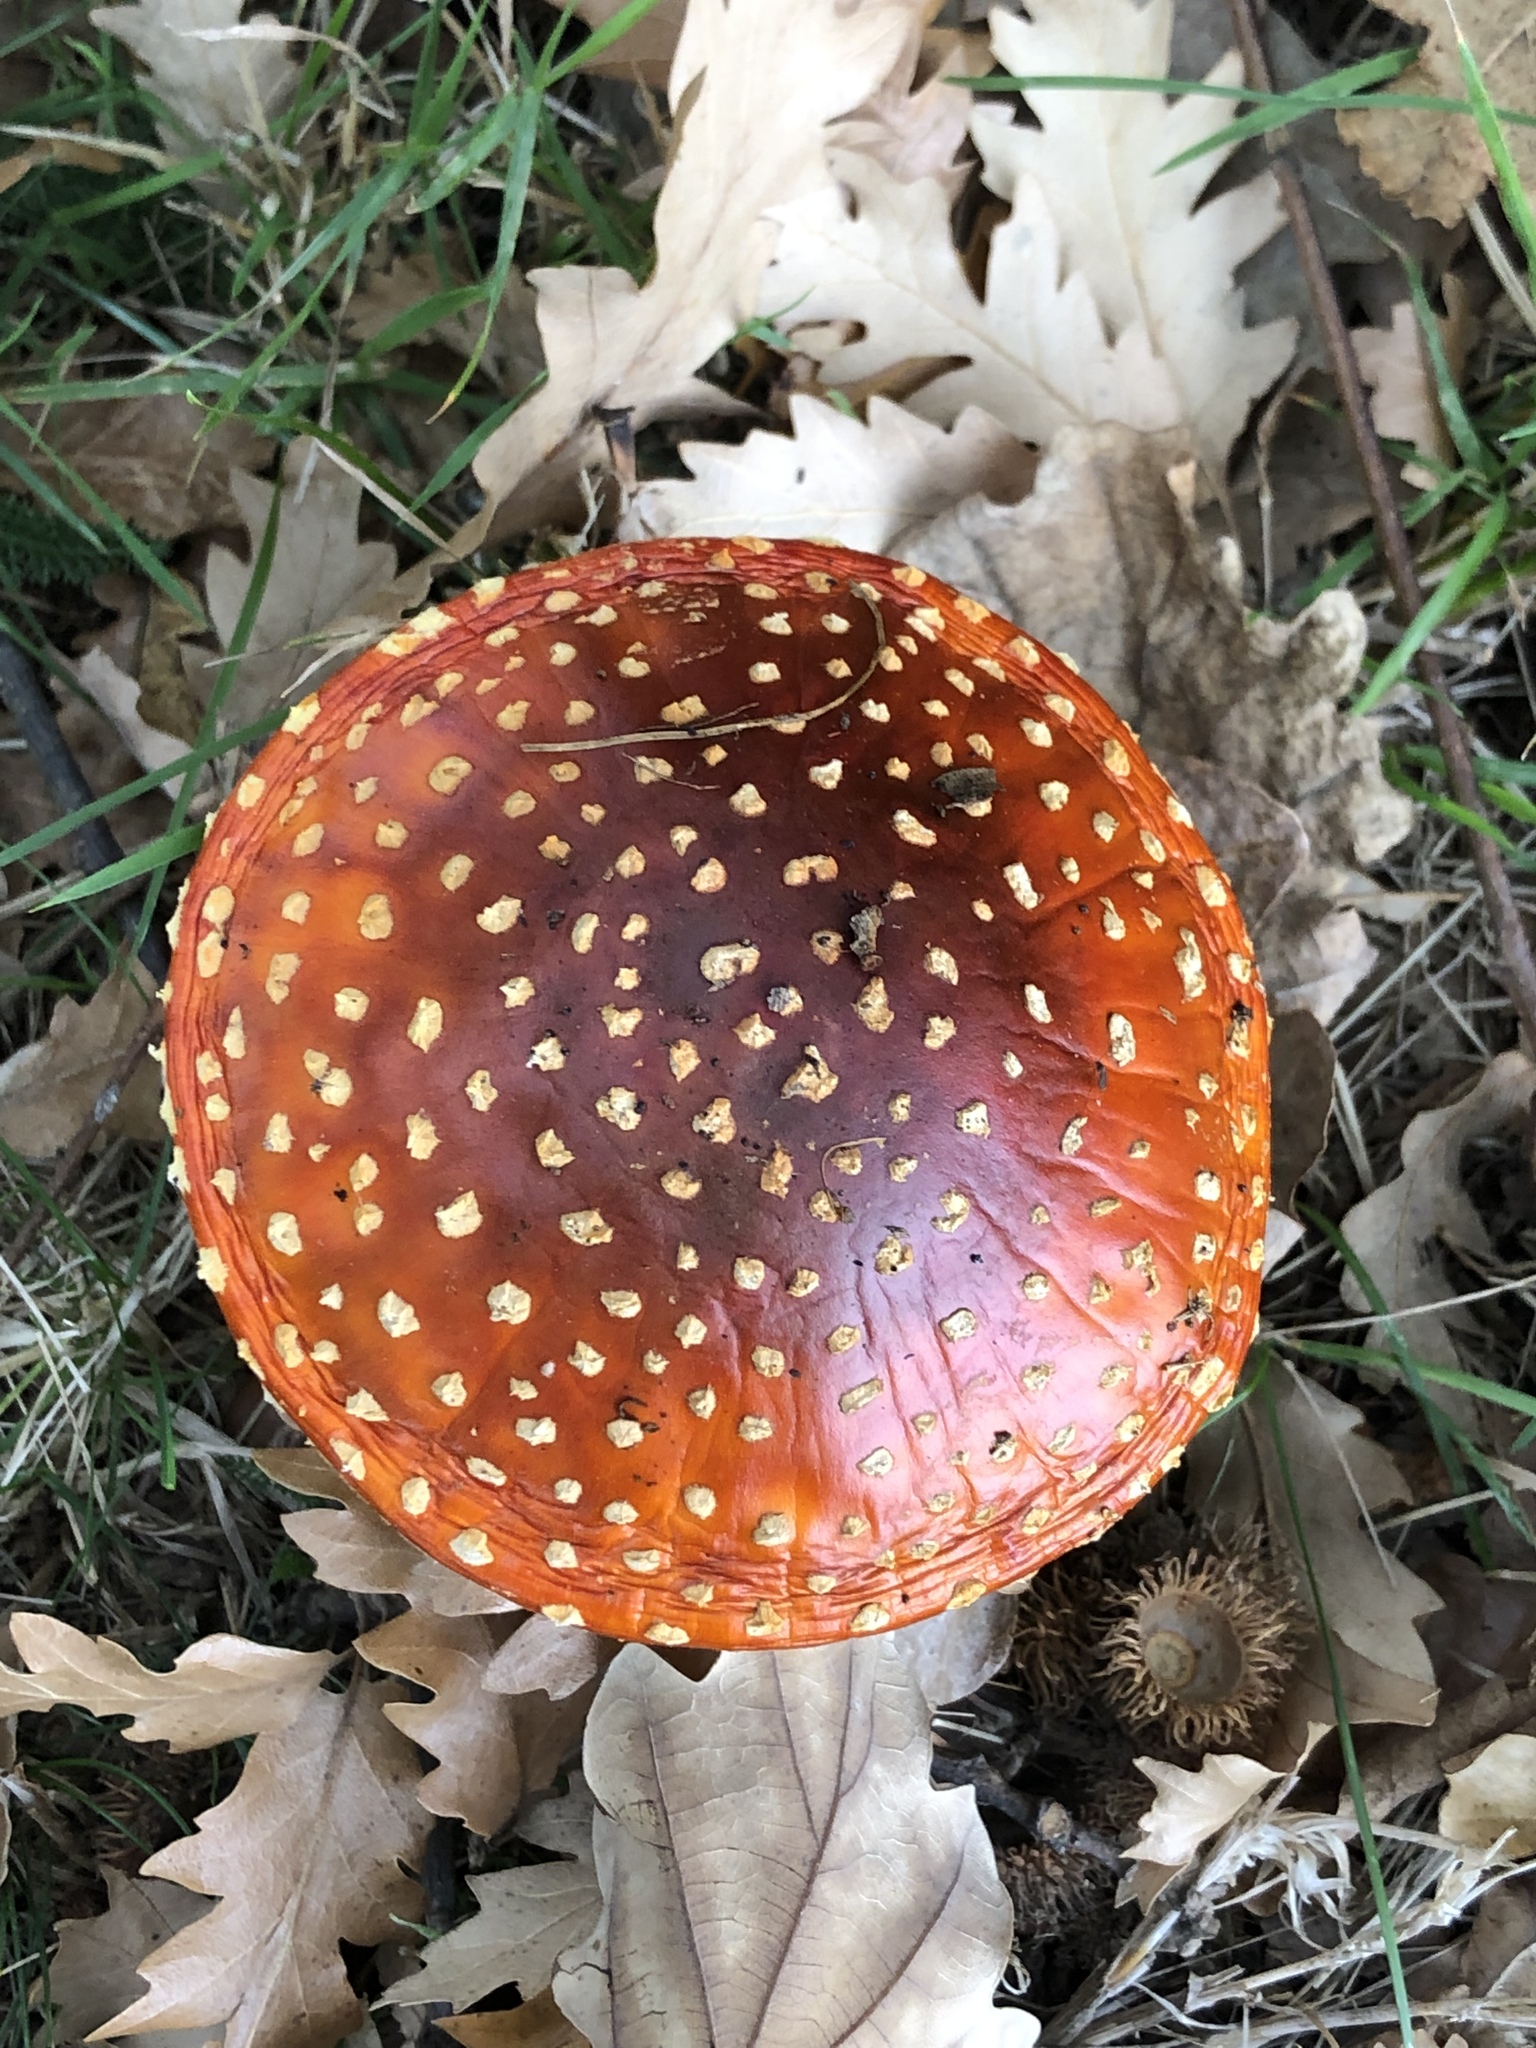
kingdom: Fungi
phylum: Basidiomycota
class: Agaricomycetes
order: Agaricales
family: Amanitaceae
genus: Amanita
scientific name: Amanita muscaria
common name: Fly agaric
